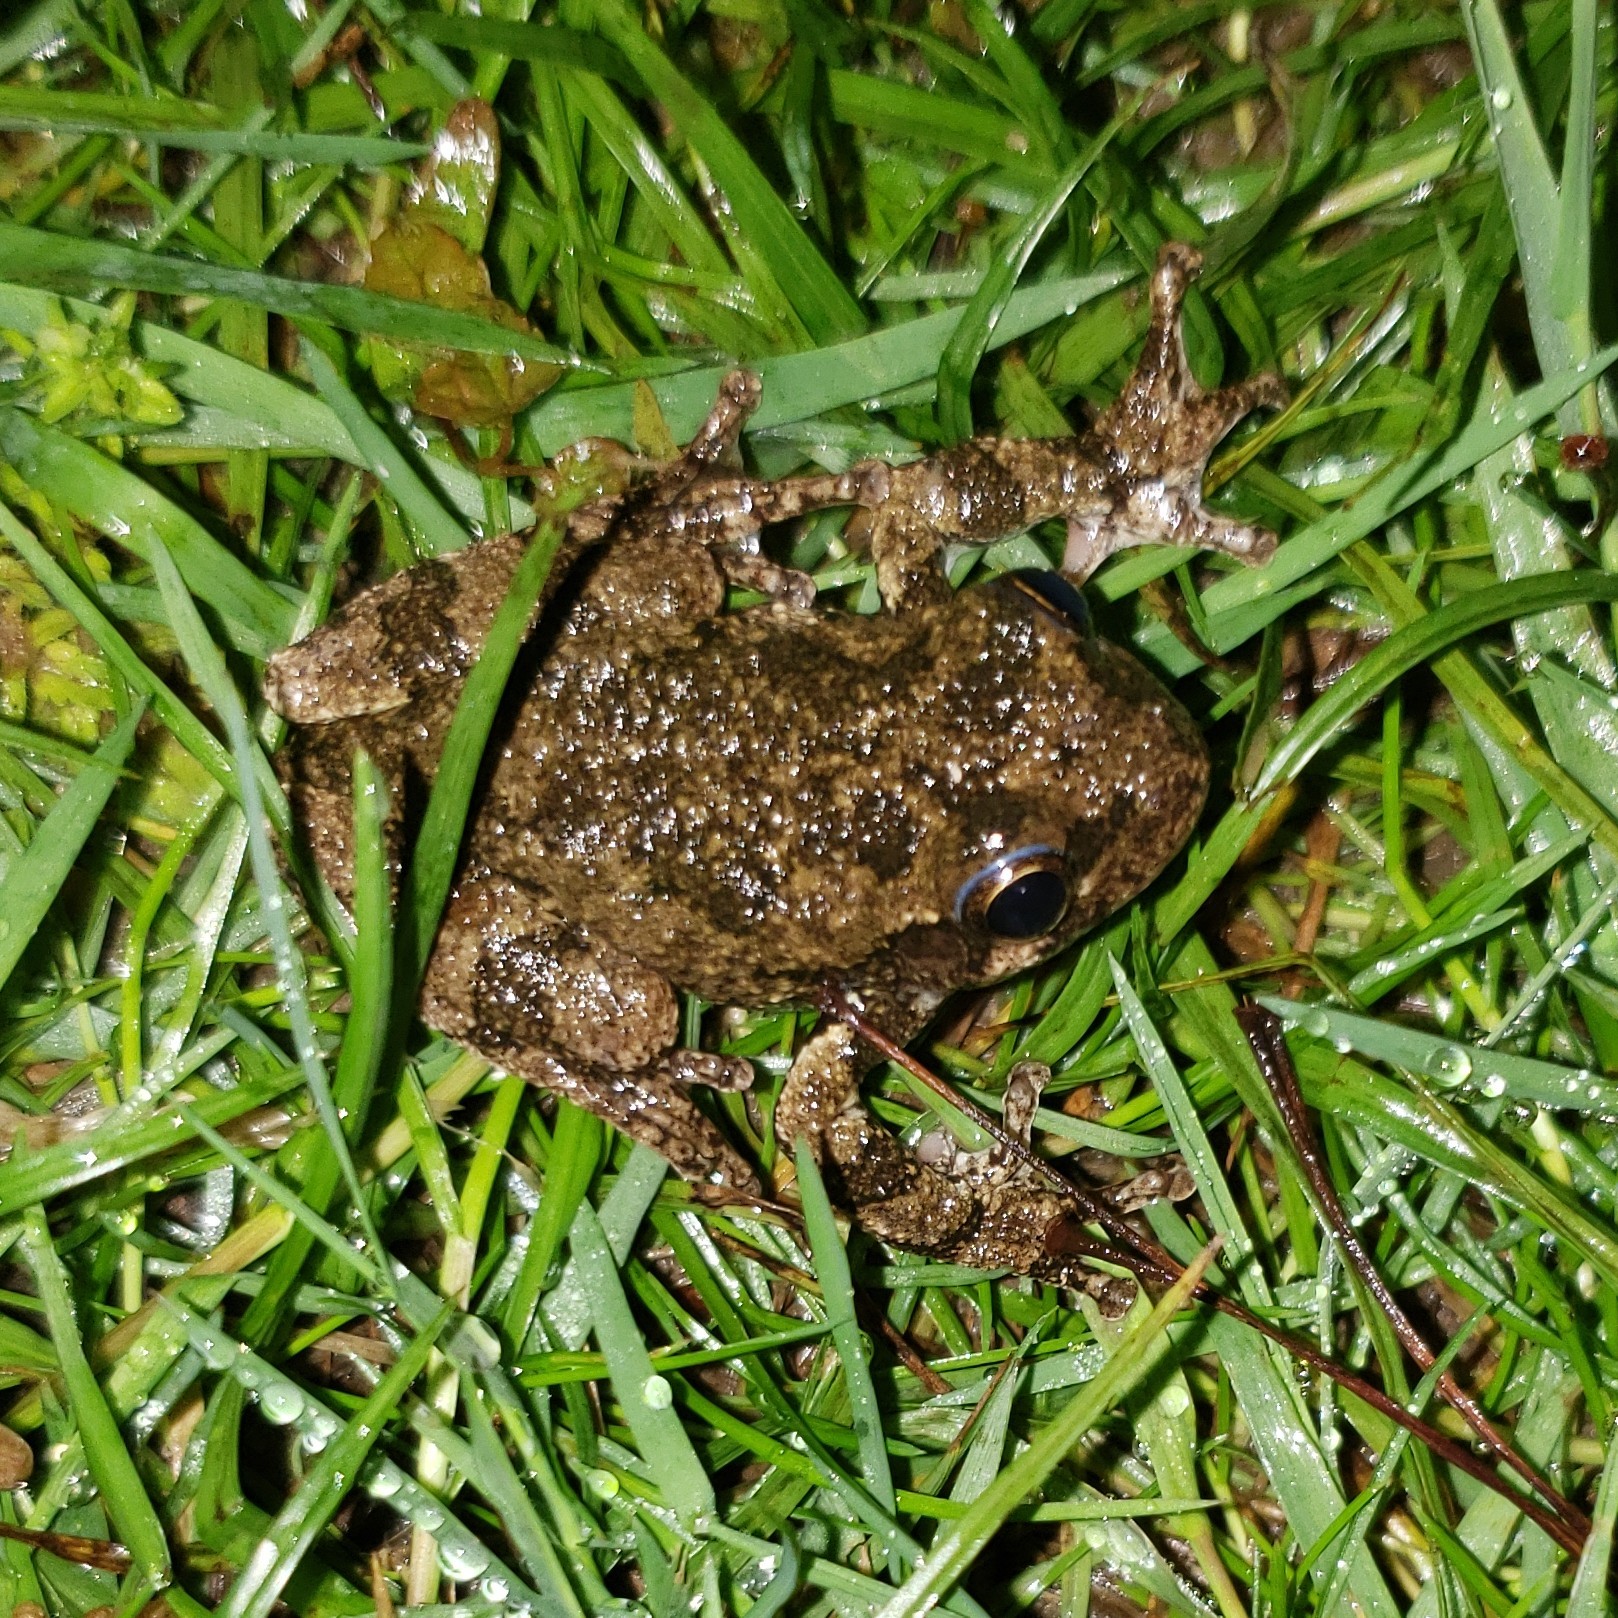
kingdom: Animalia
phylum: Chordata
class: Amphibia
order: Anura
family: Hylidae
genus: Hyla
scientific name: Hyla
